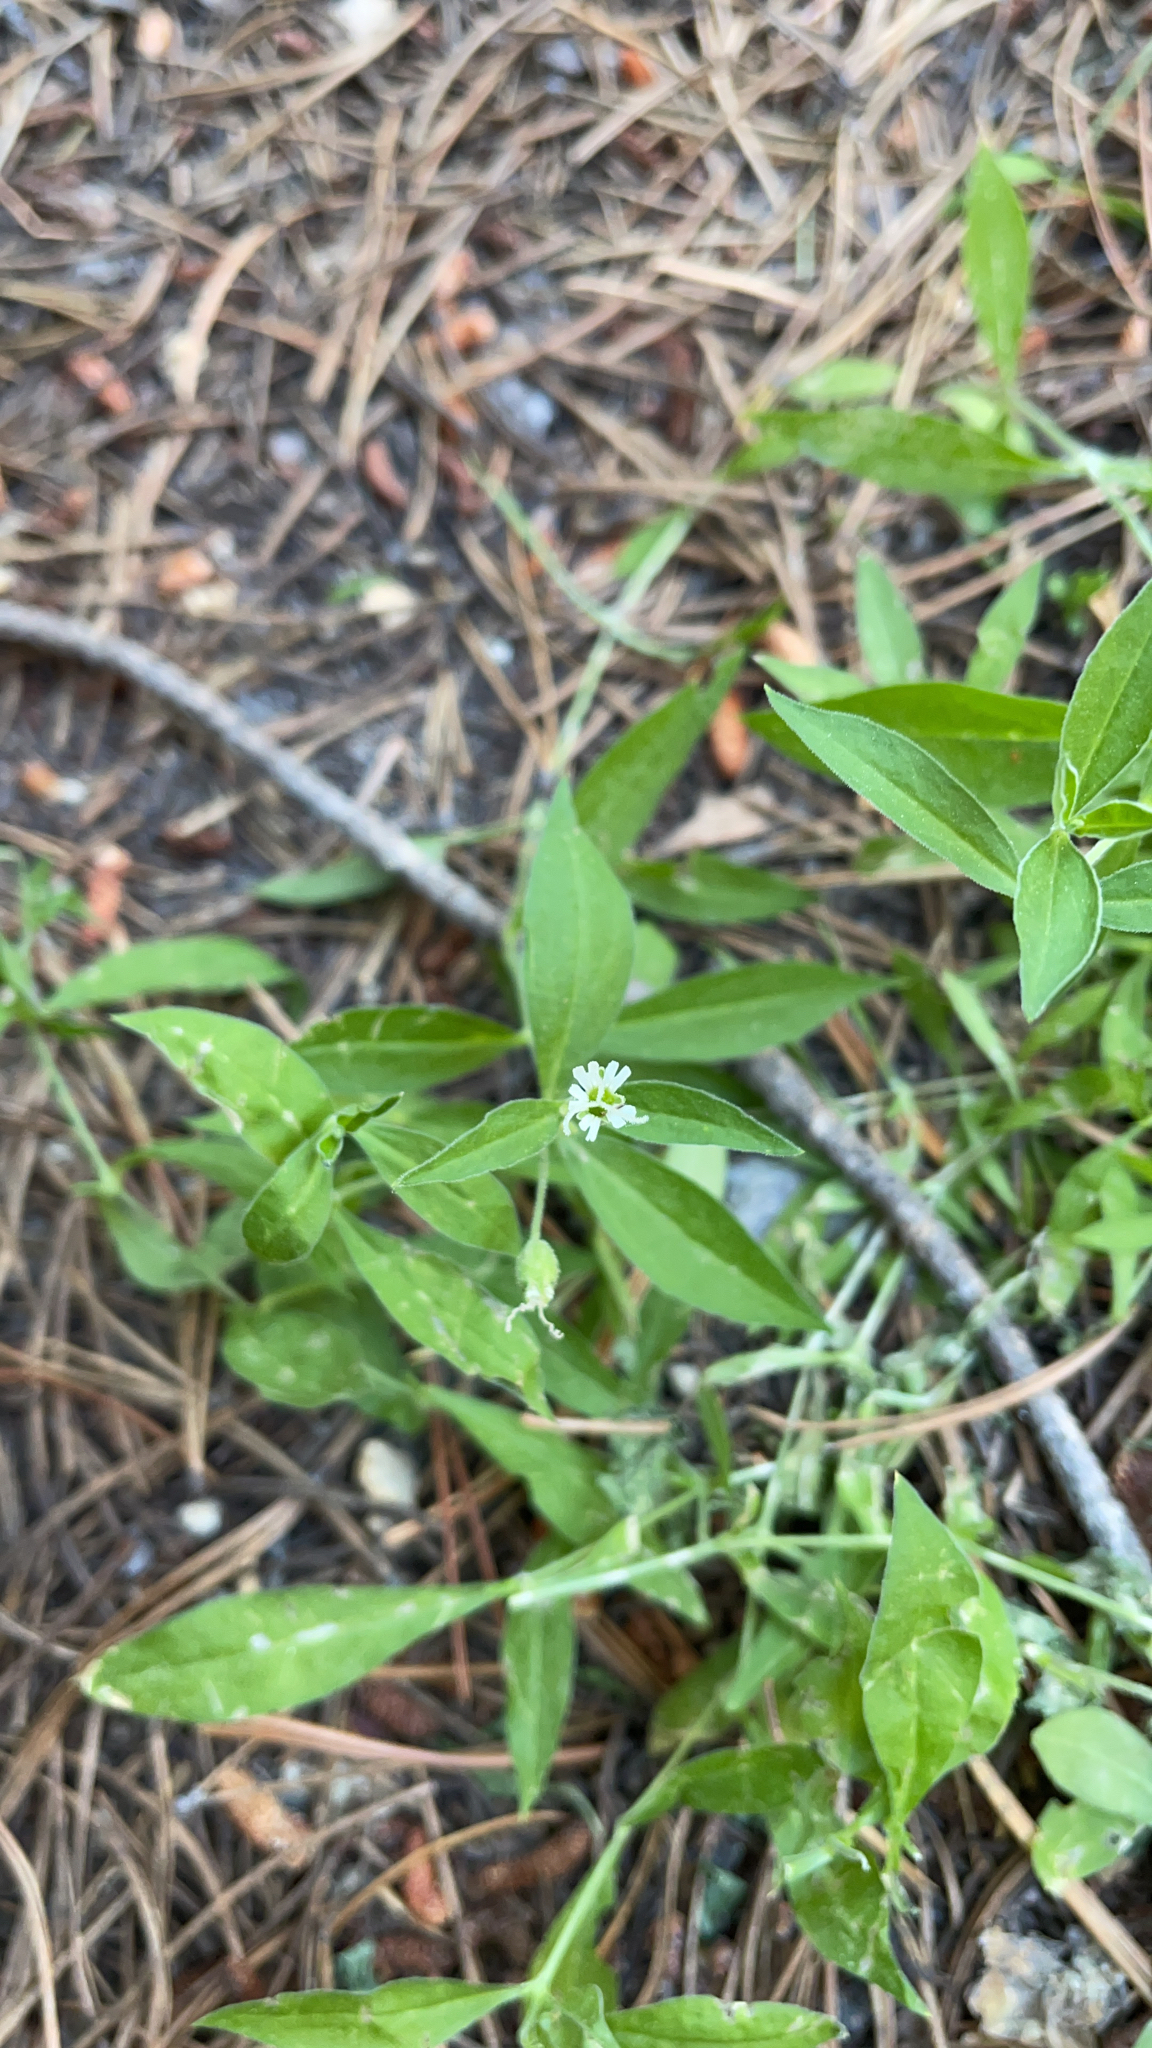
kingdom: Plantae
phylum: Tracheophyta
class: Magnoliopsida
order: Caryophyllales
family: Caryophyllaceae
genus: Silene
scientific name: Silene menziesii
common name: Menzies's catchfly
